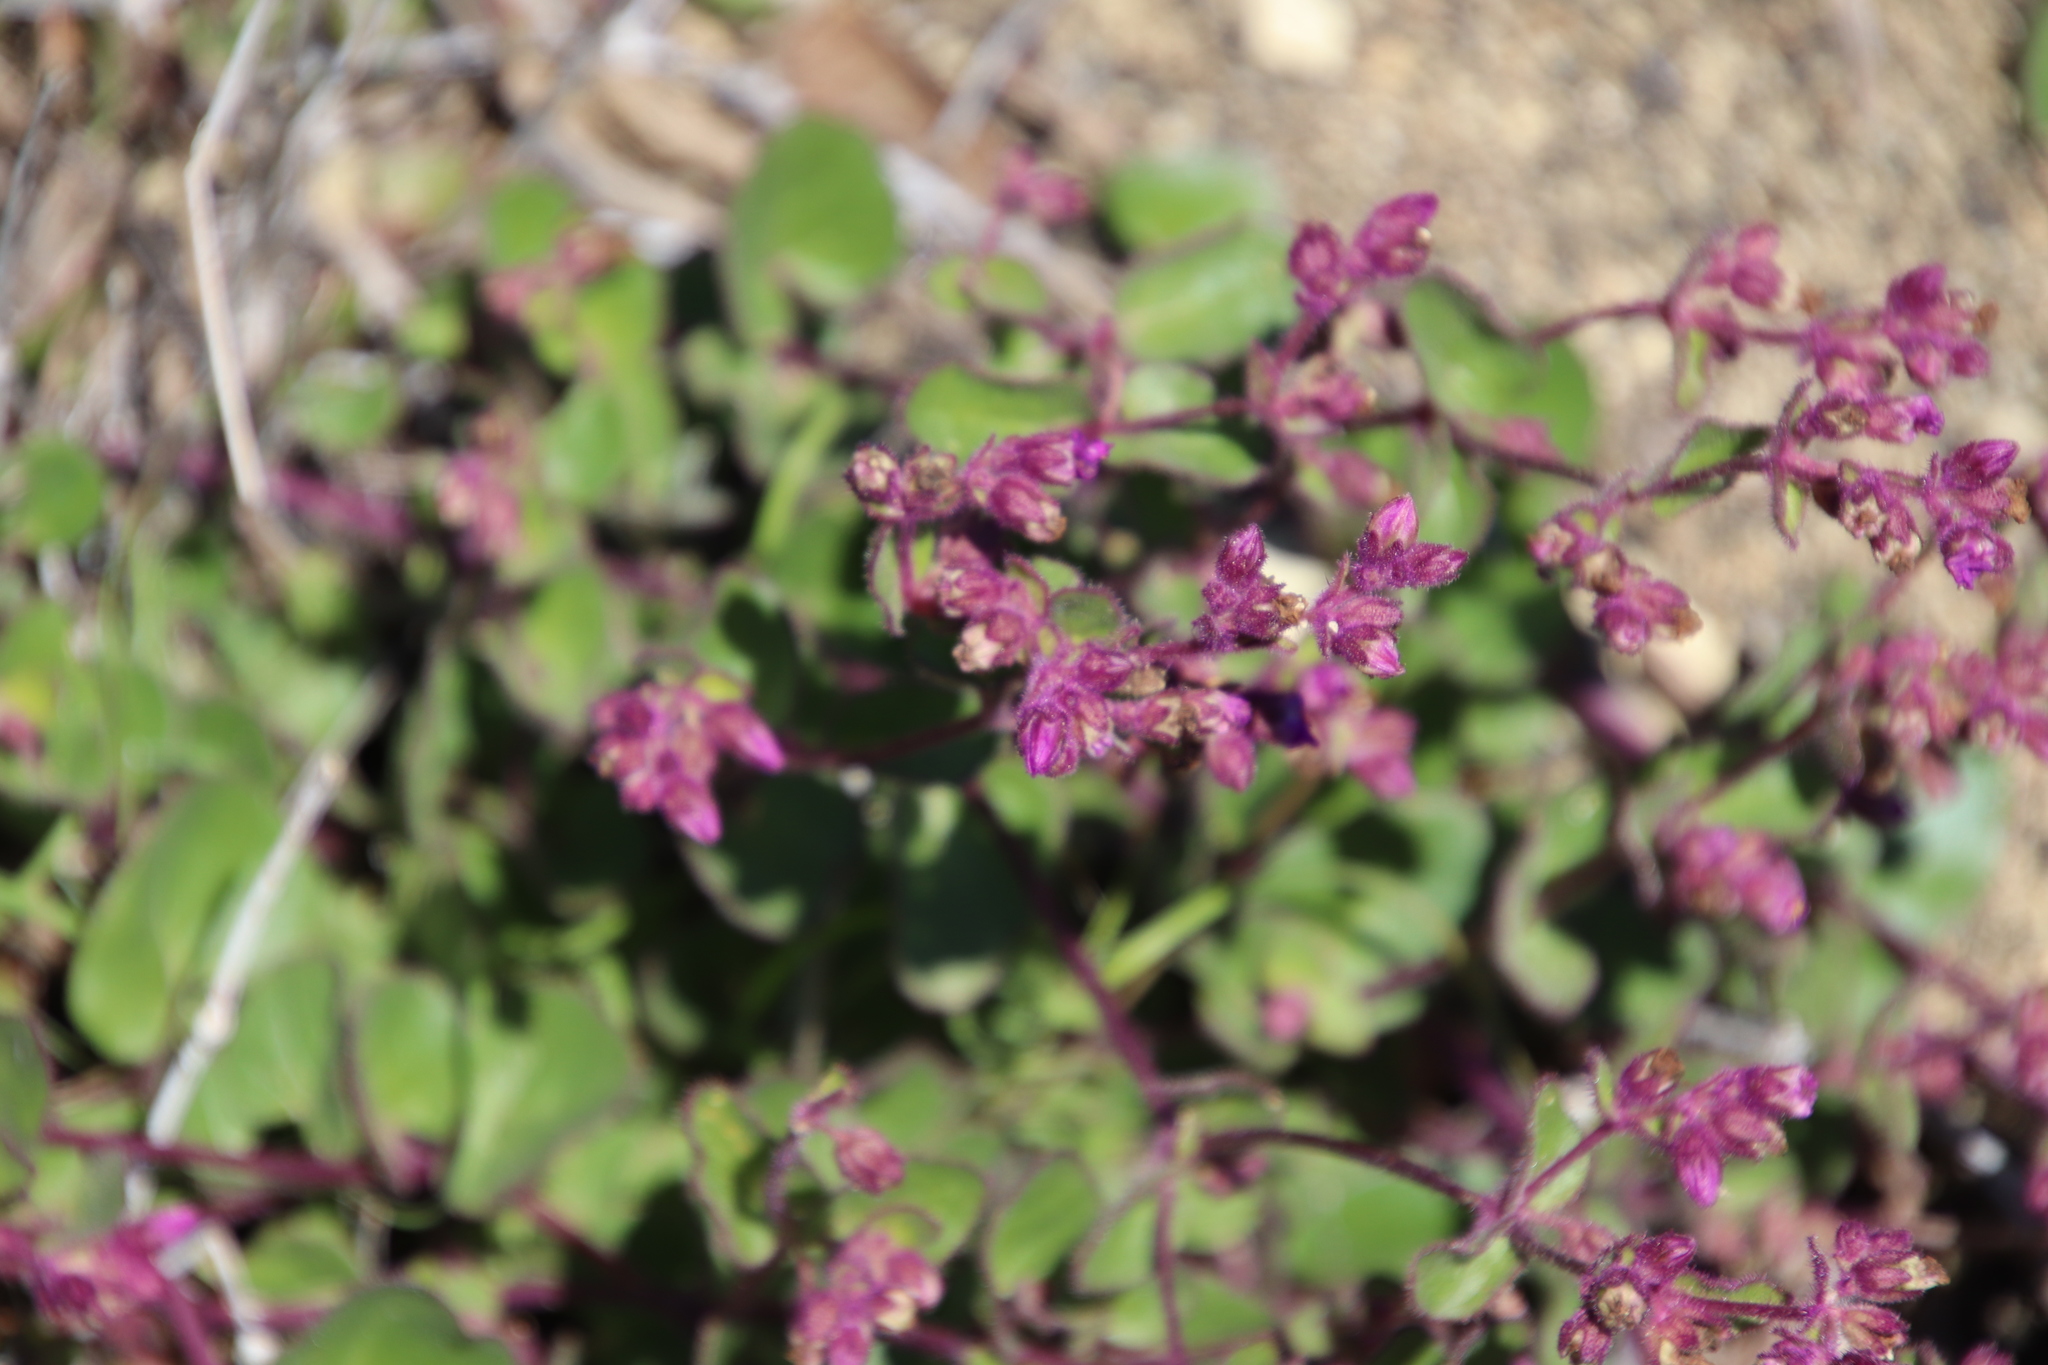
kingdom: Plantae
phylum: Tracheophyta
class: Magnoliopsida
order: Caryophyllales
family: Nyctaginaceae
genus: Mirabilis
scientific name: Mirabilis laevis
